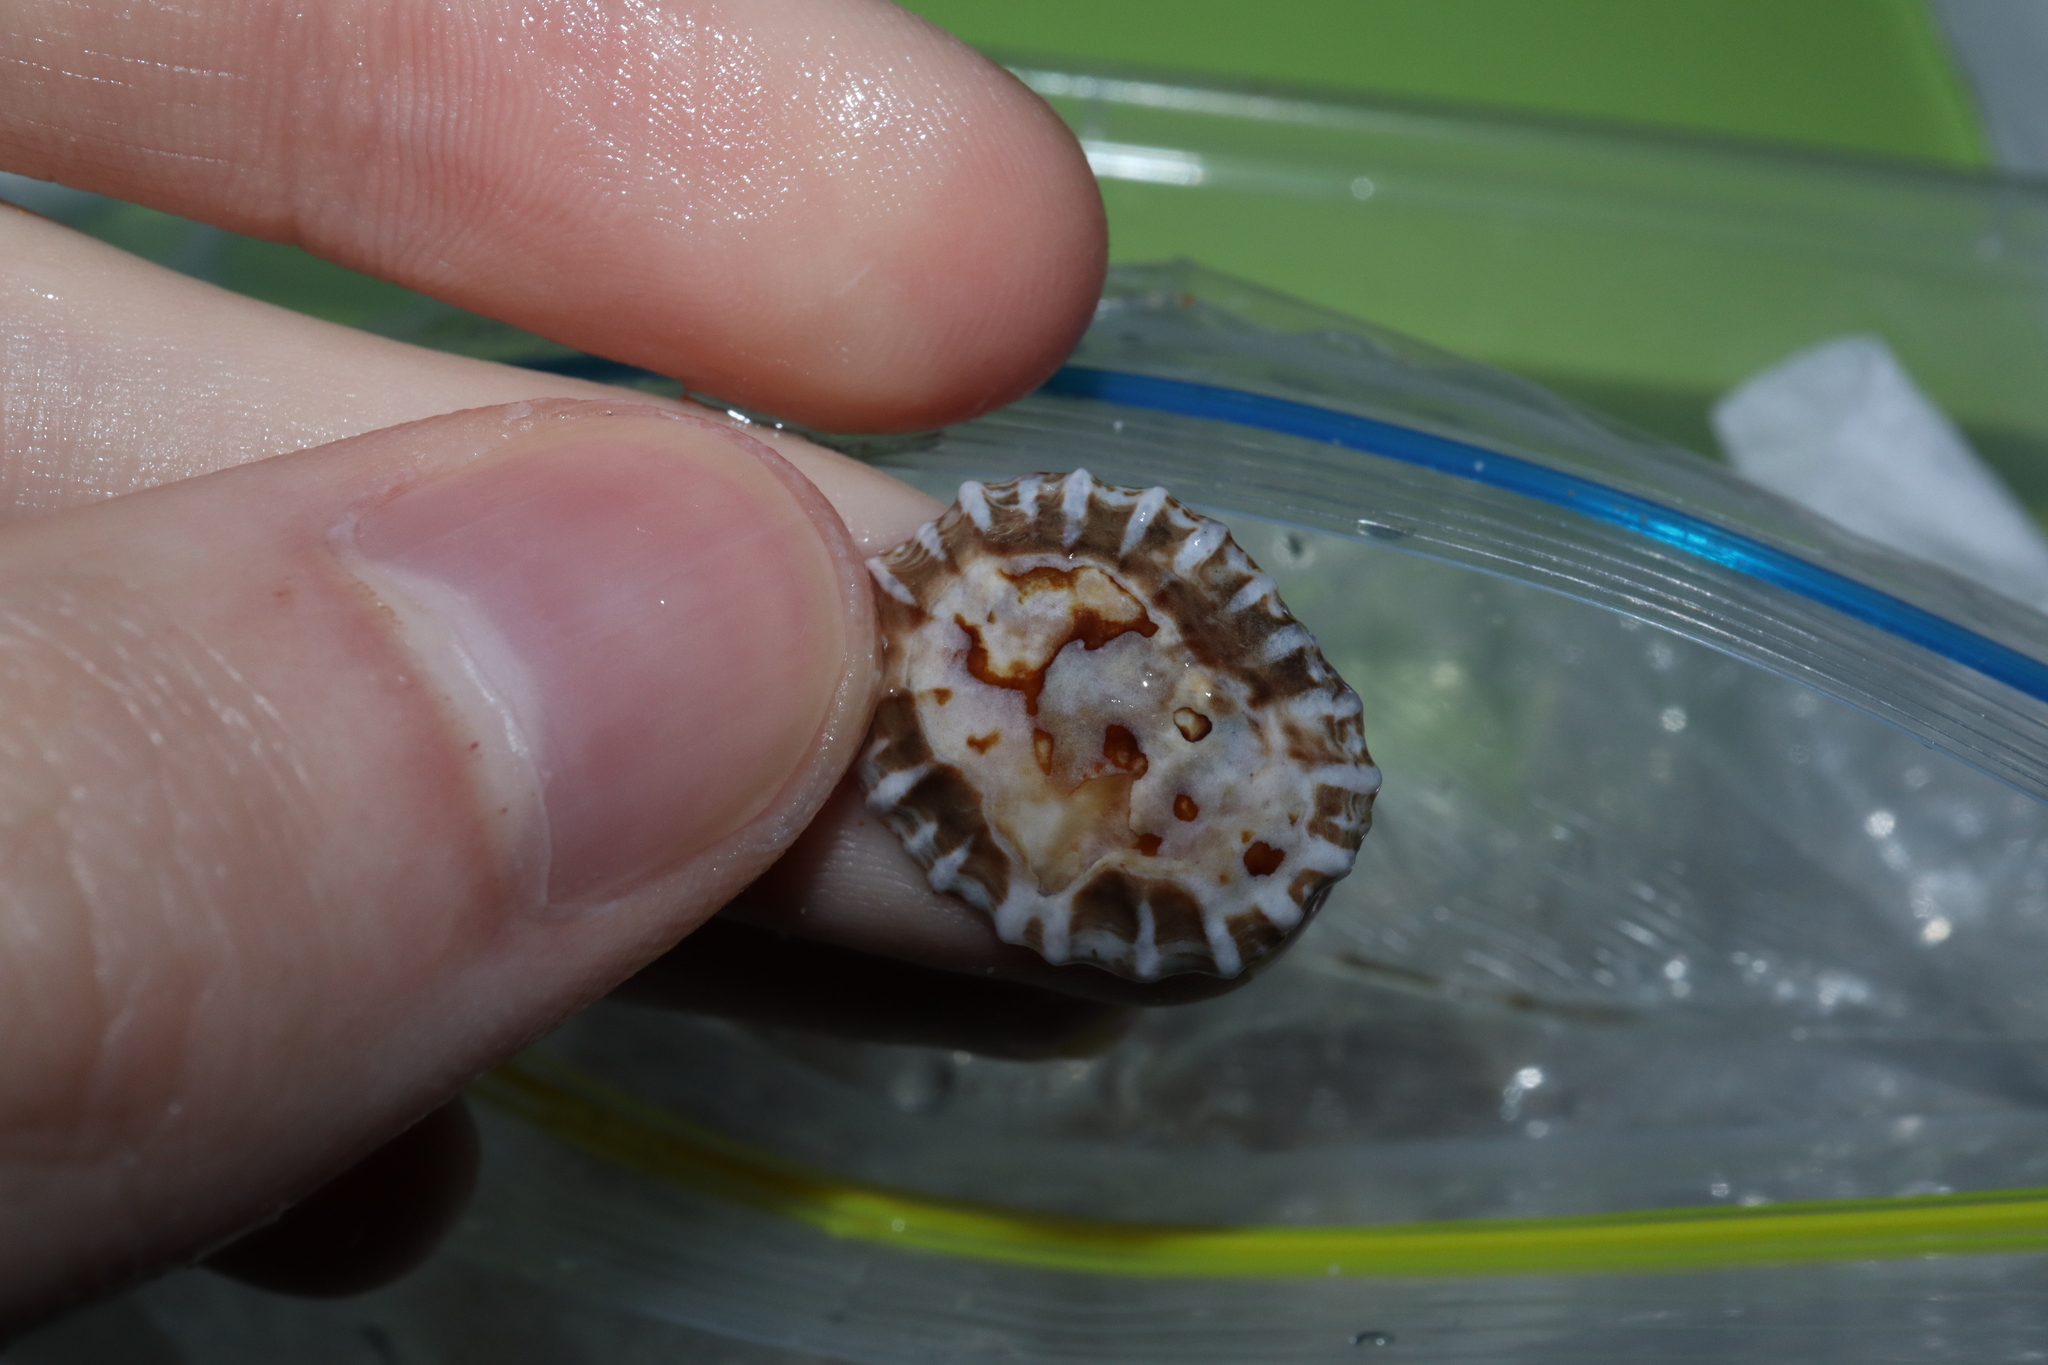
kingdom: Animalia
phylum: Mollusca
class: Gastropoda
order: Siphonariida
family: Siphonariidae
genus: Siphonaria
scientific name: Siphonaria denticulata
